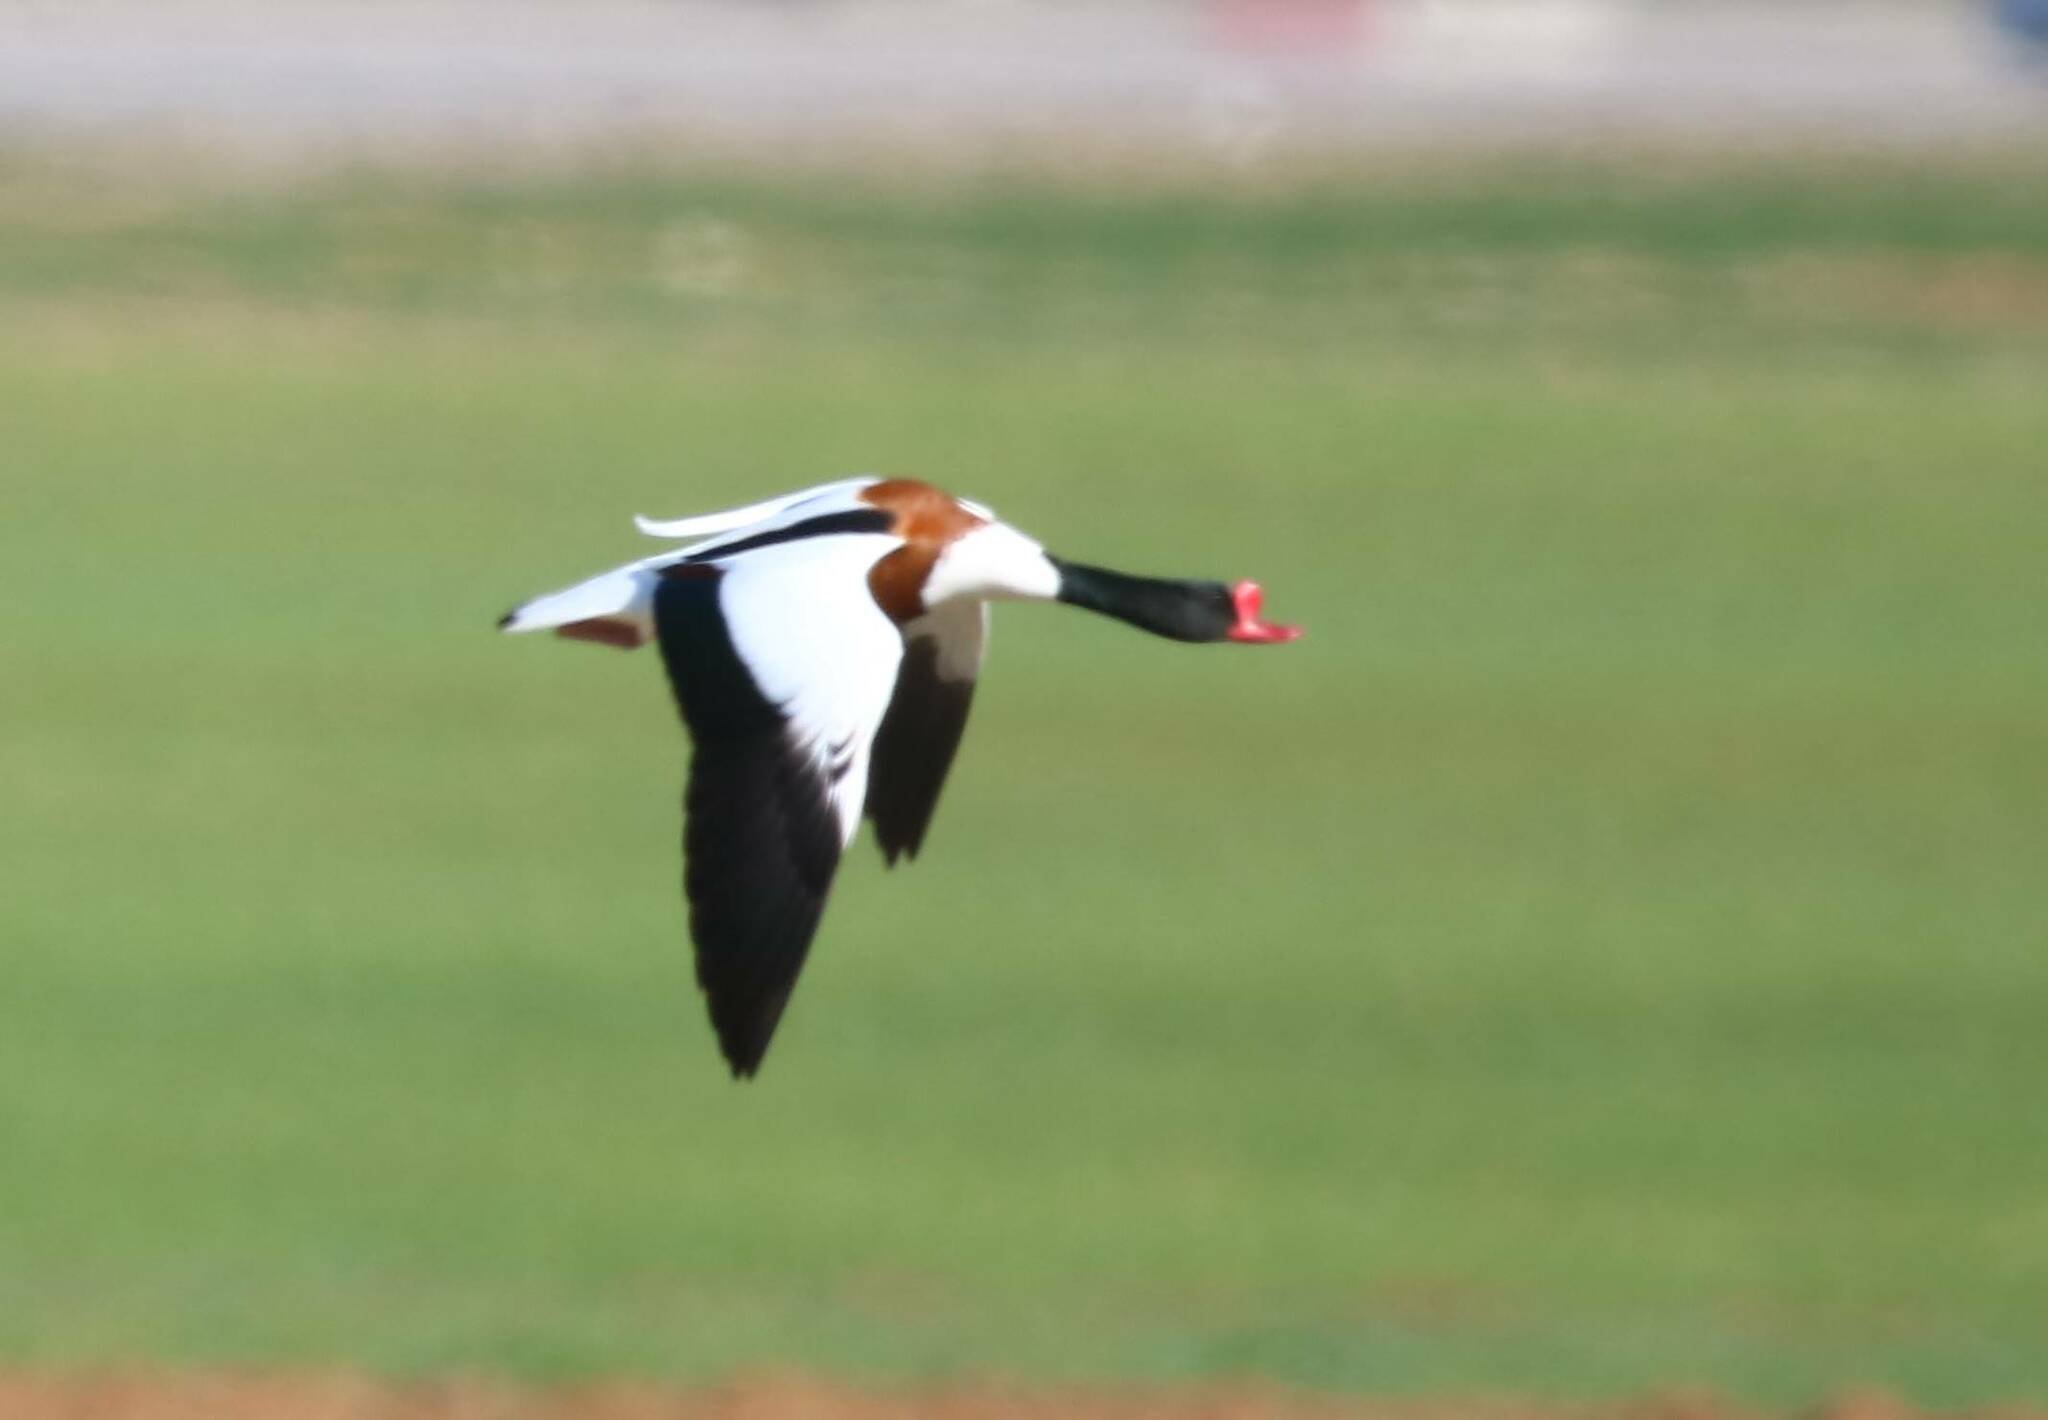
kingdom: Animalia
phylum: Chordata
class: Aves
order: Anseriformes
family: Anatidae
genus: Tadorna
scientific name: Tadorna tadorna
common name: Common shelduck
